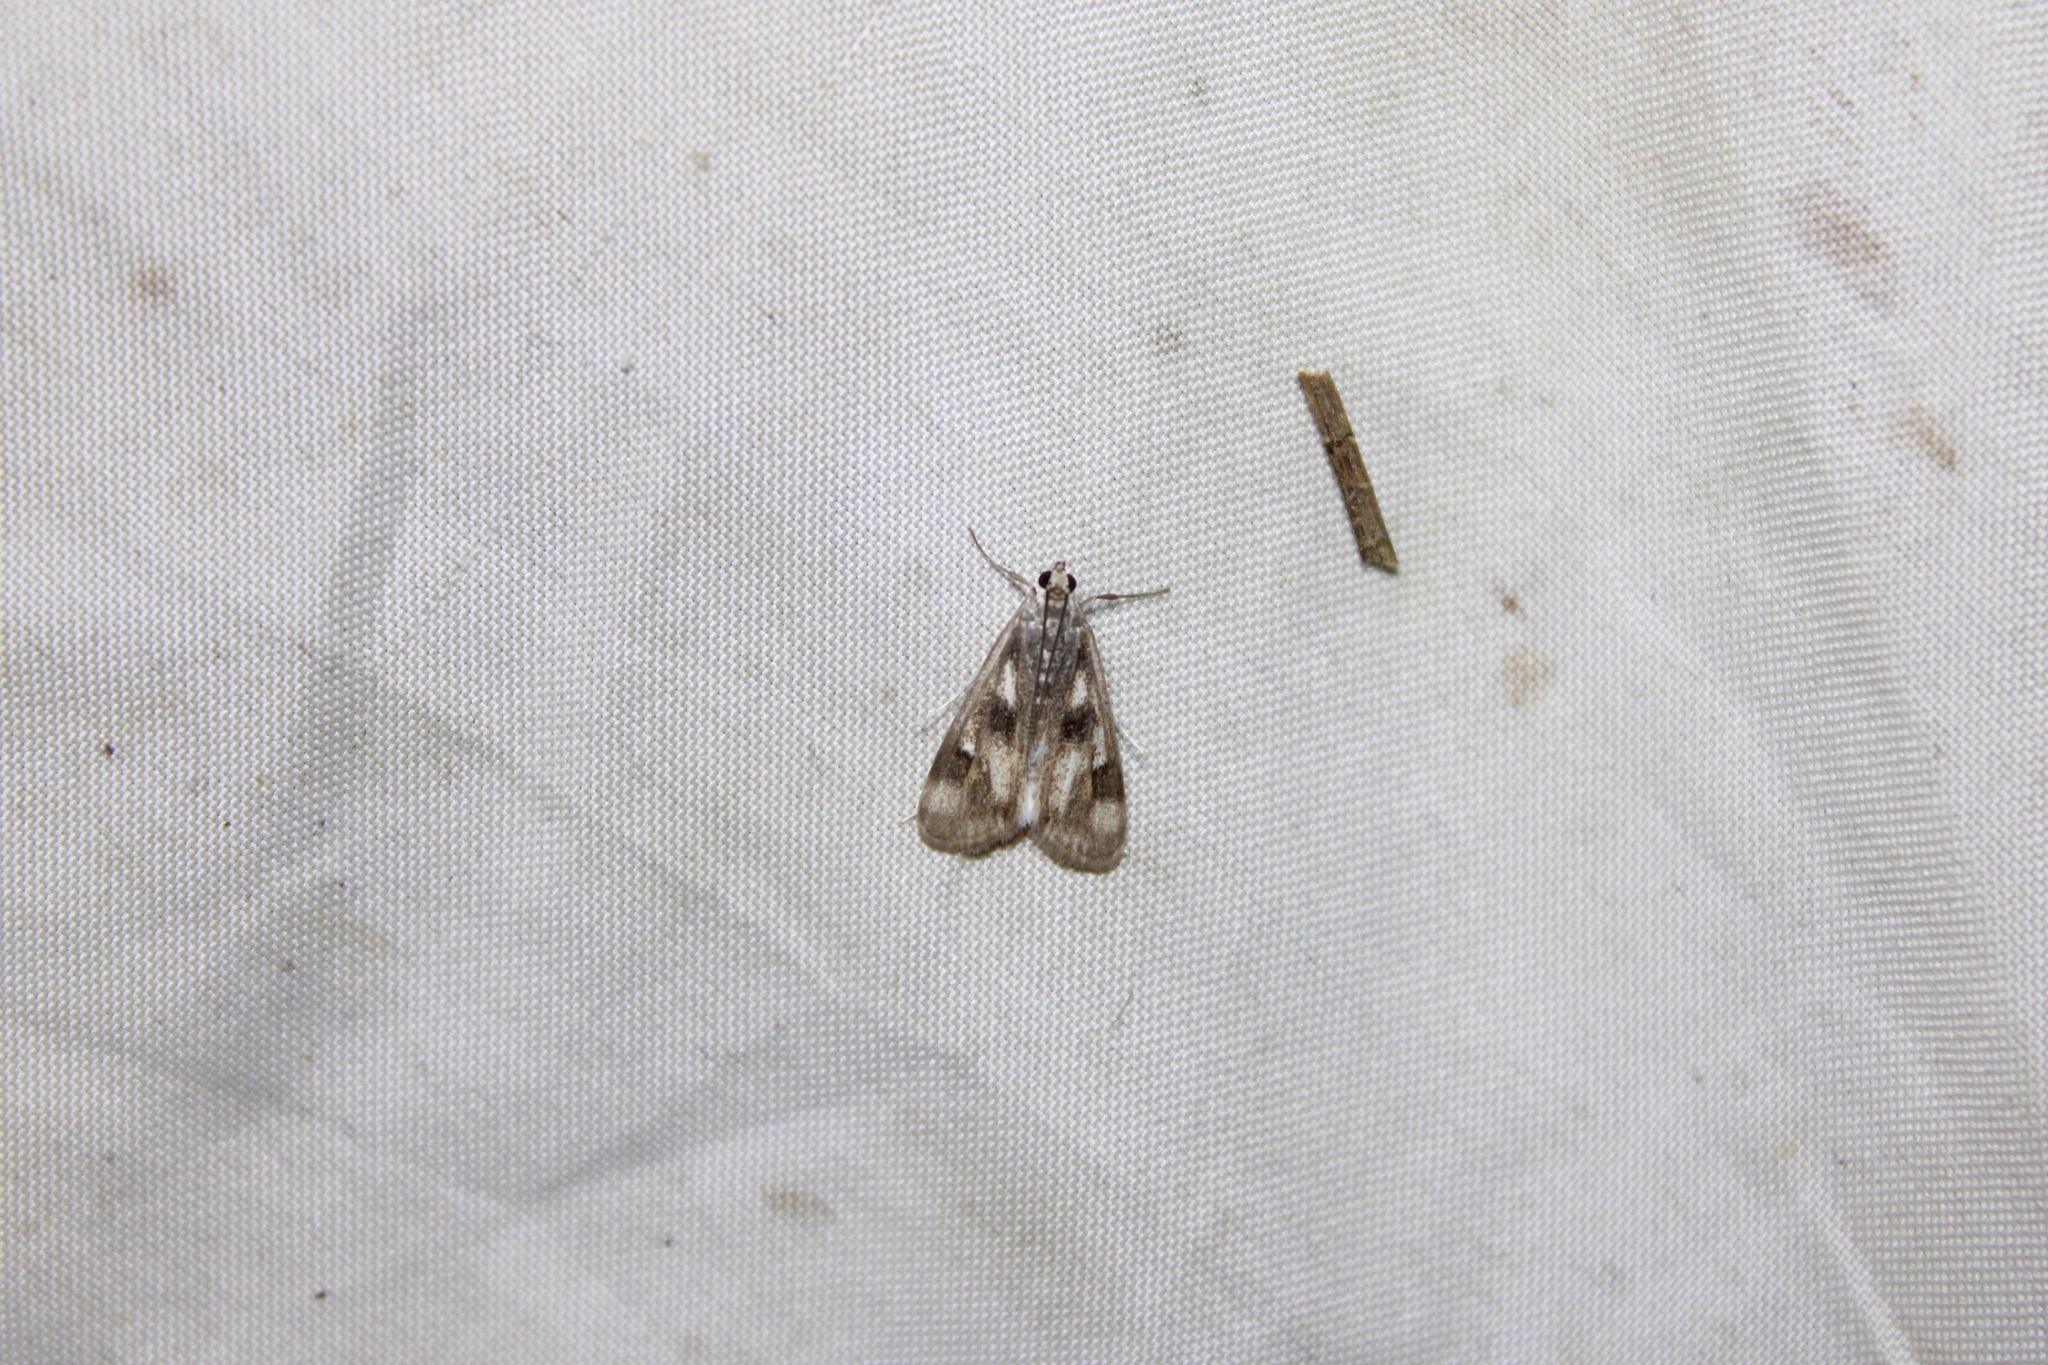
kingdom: Animalia
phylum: Arthropoda
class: Insecta
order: Lepidoptera
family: Crambidae
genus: Parapoynx
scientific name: Parapoynx maculalis
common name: Polymorphic pondweed moth
